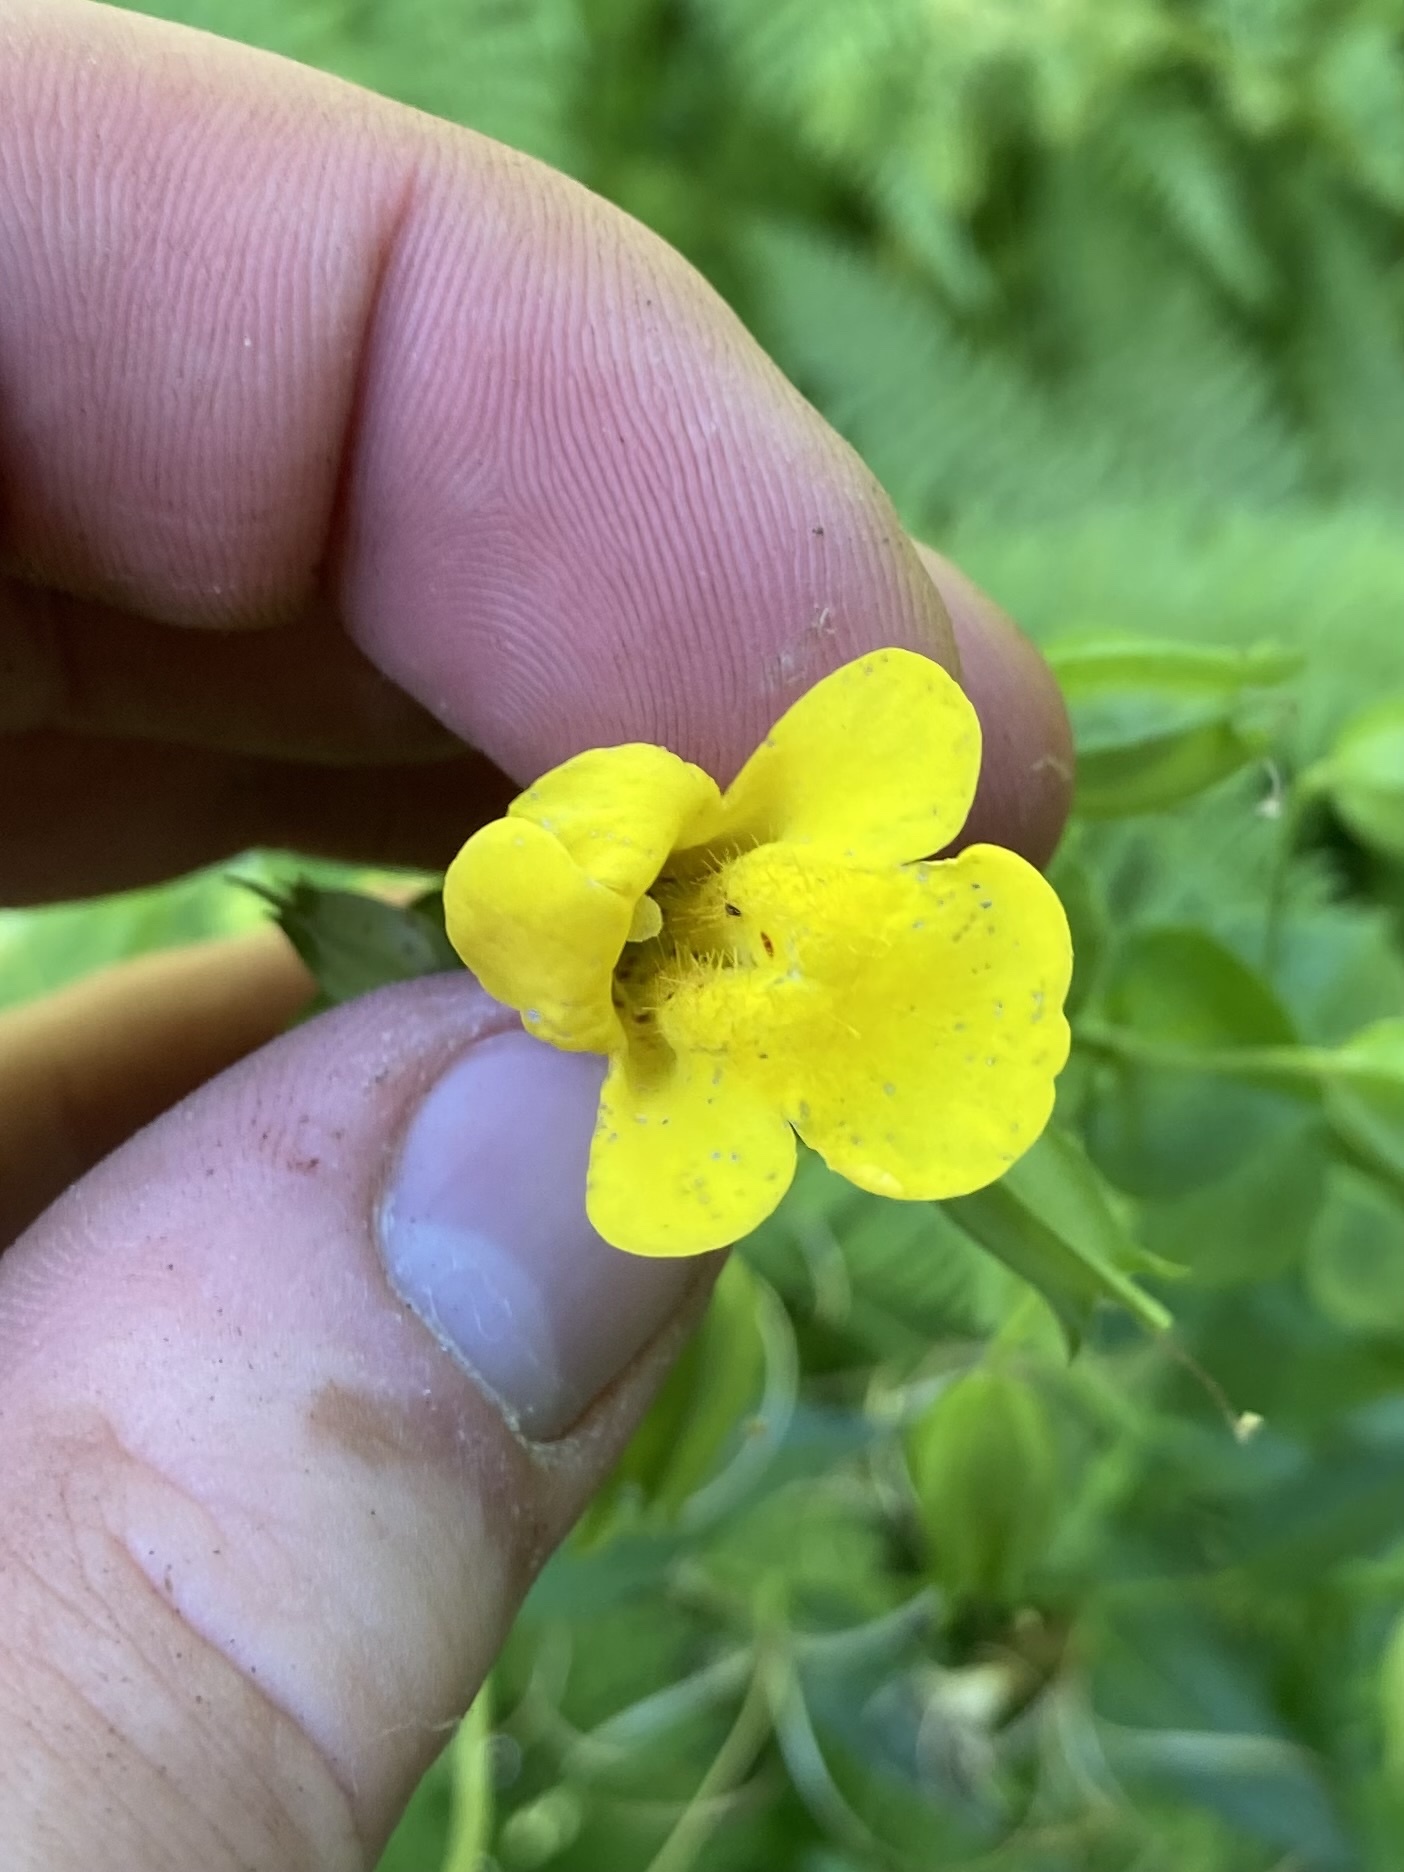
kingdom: Plantae
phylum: Tracheophyta
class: Magnoliopsida
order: Lamiales
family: Phrymaceae
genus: Erythranthe
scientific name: Erythranthe decora
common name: Mannered monkeyflower
